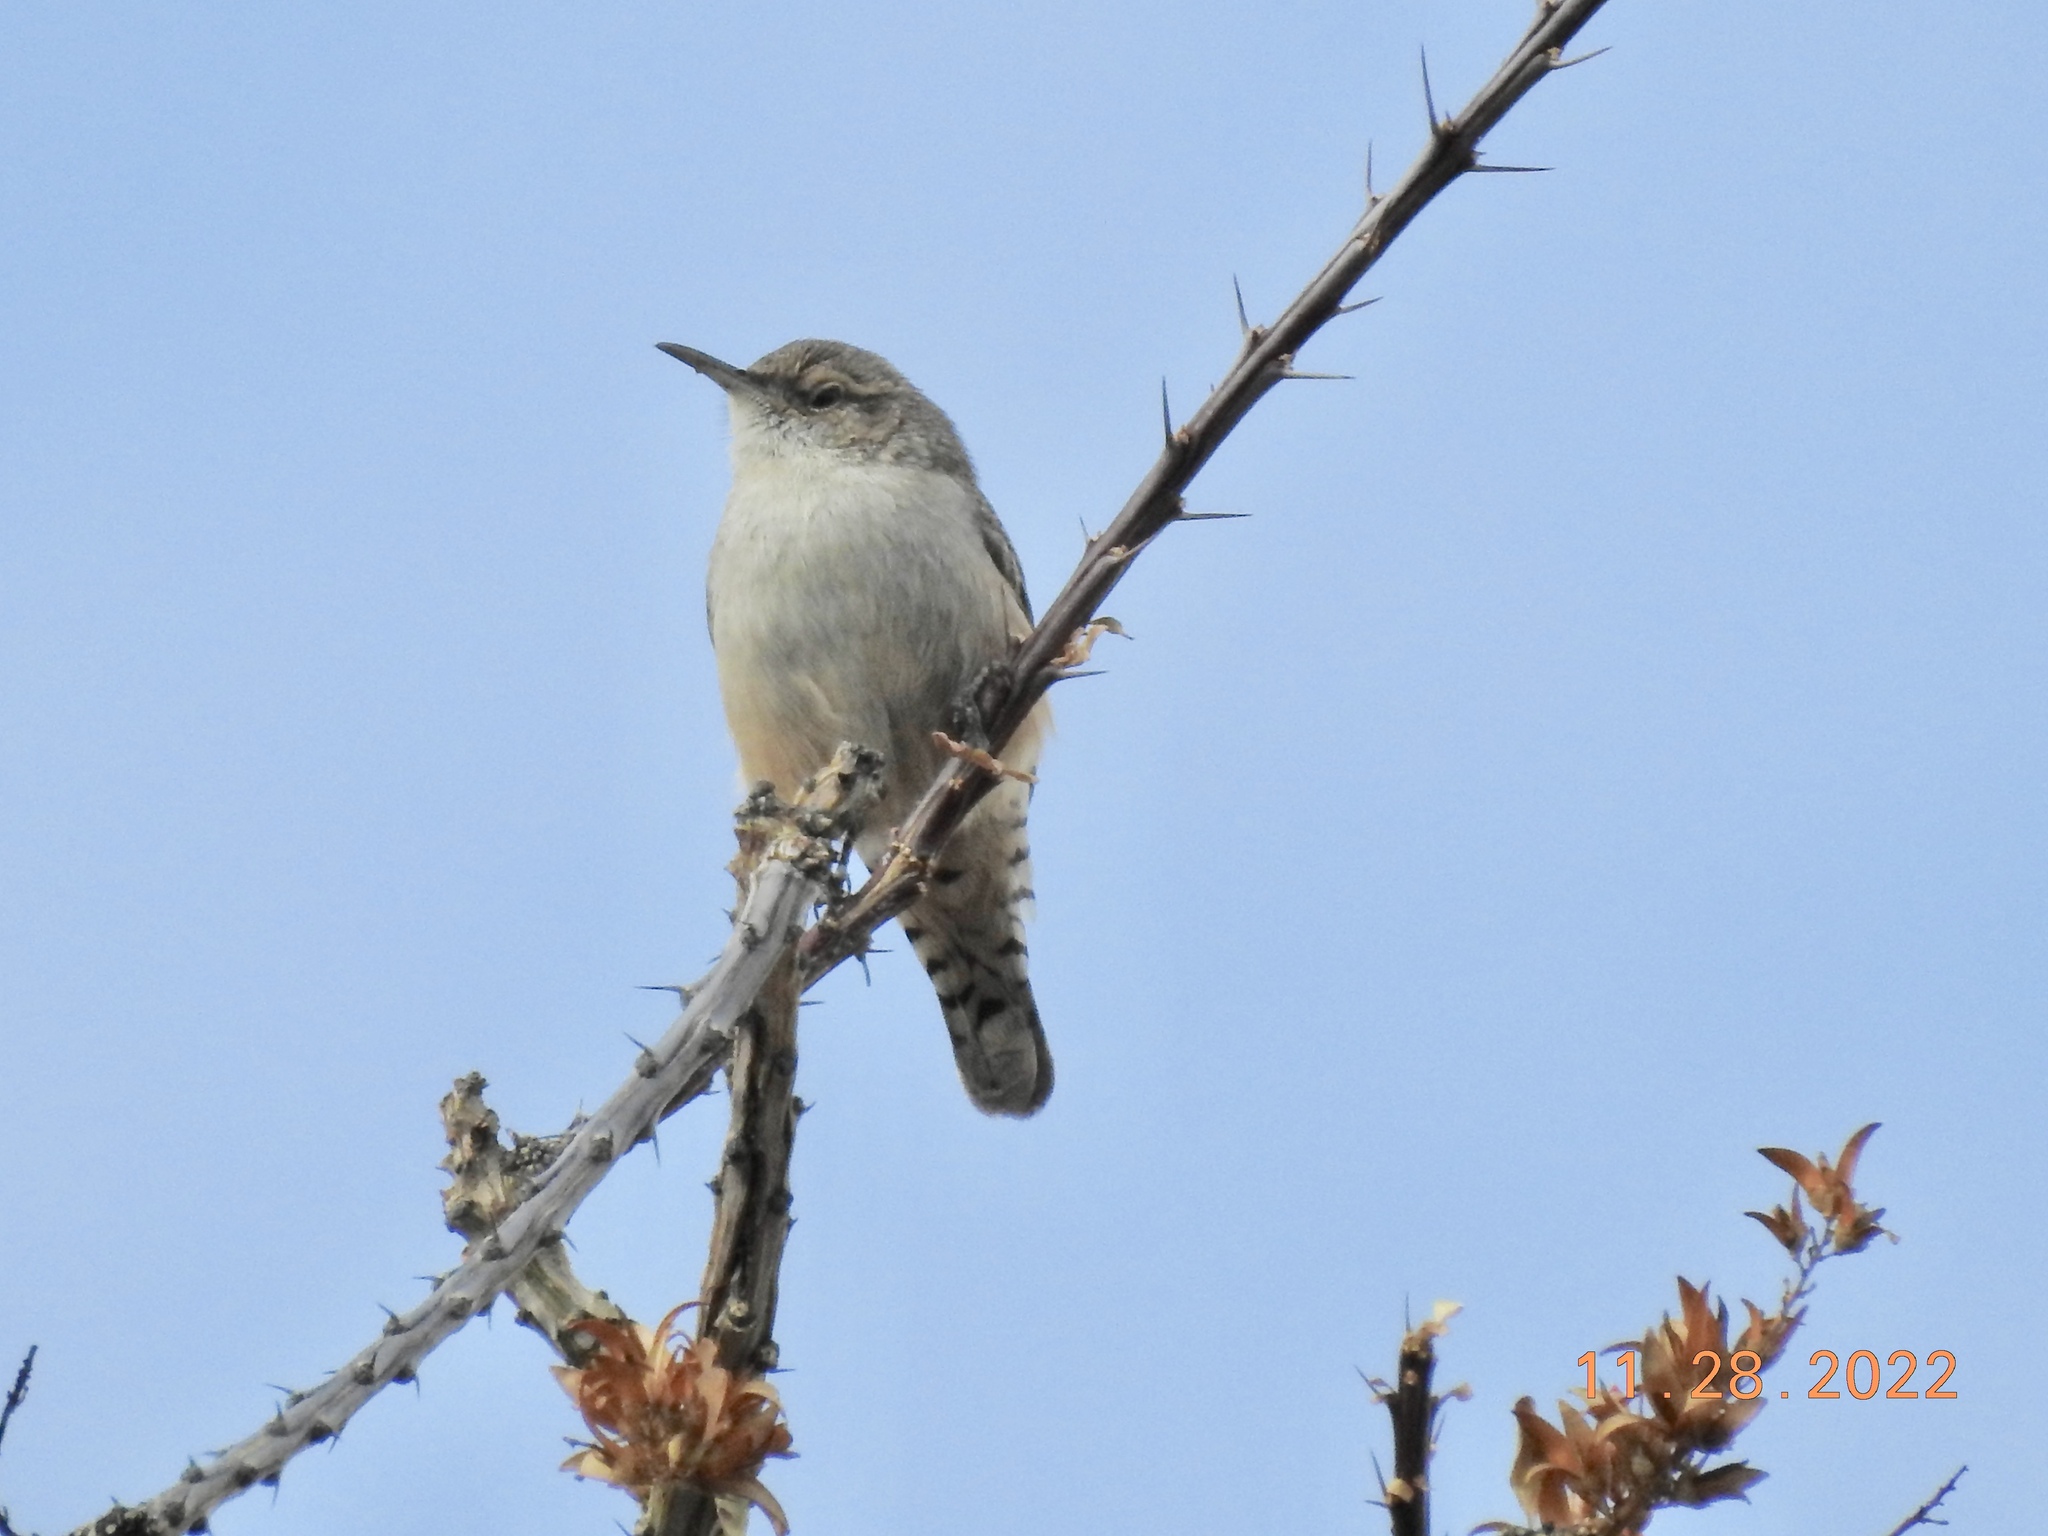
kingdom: Animalia
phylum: Chordata
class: Aves
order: Passeriformes
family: Troglodytidae
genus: Salpinctes
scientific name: Salpinctes obsoletus
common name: Rock wren
